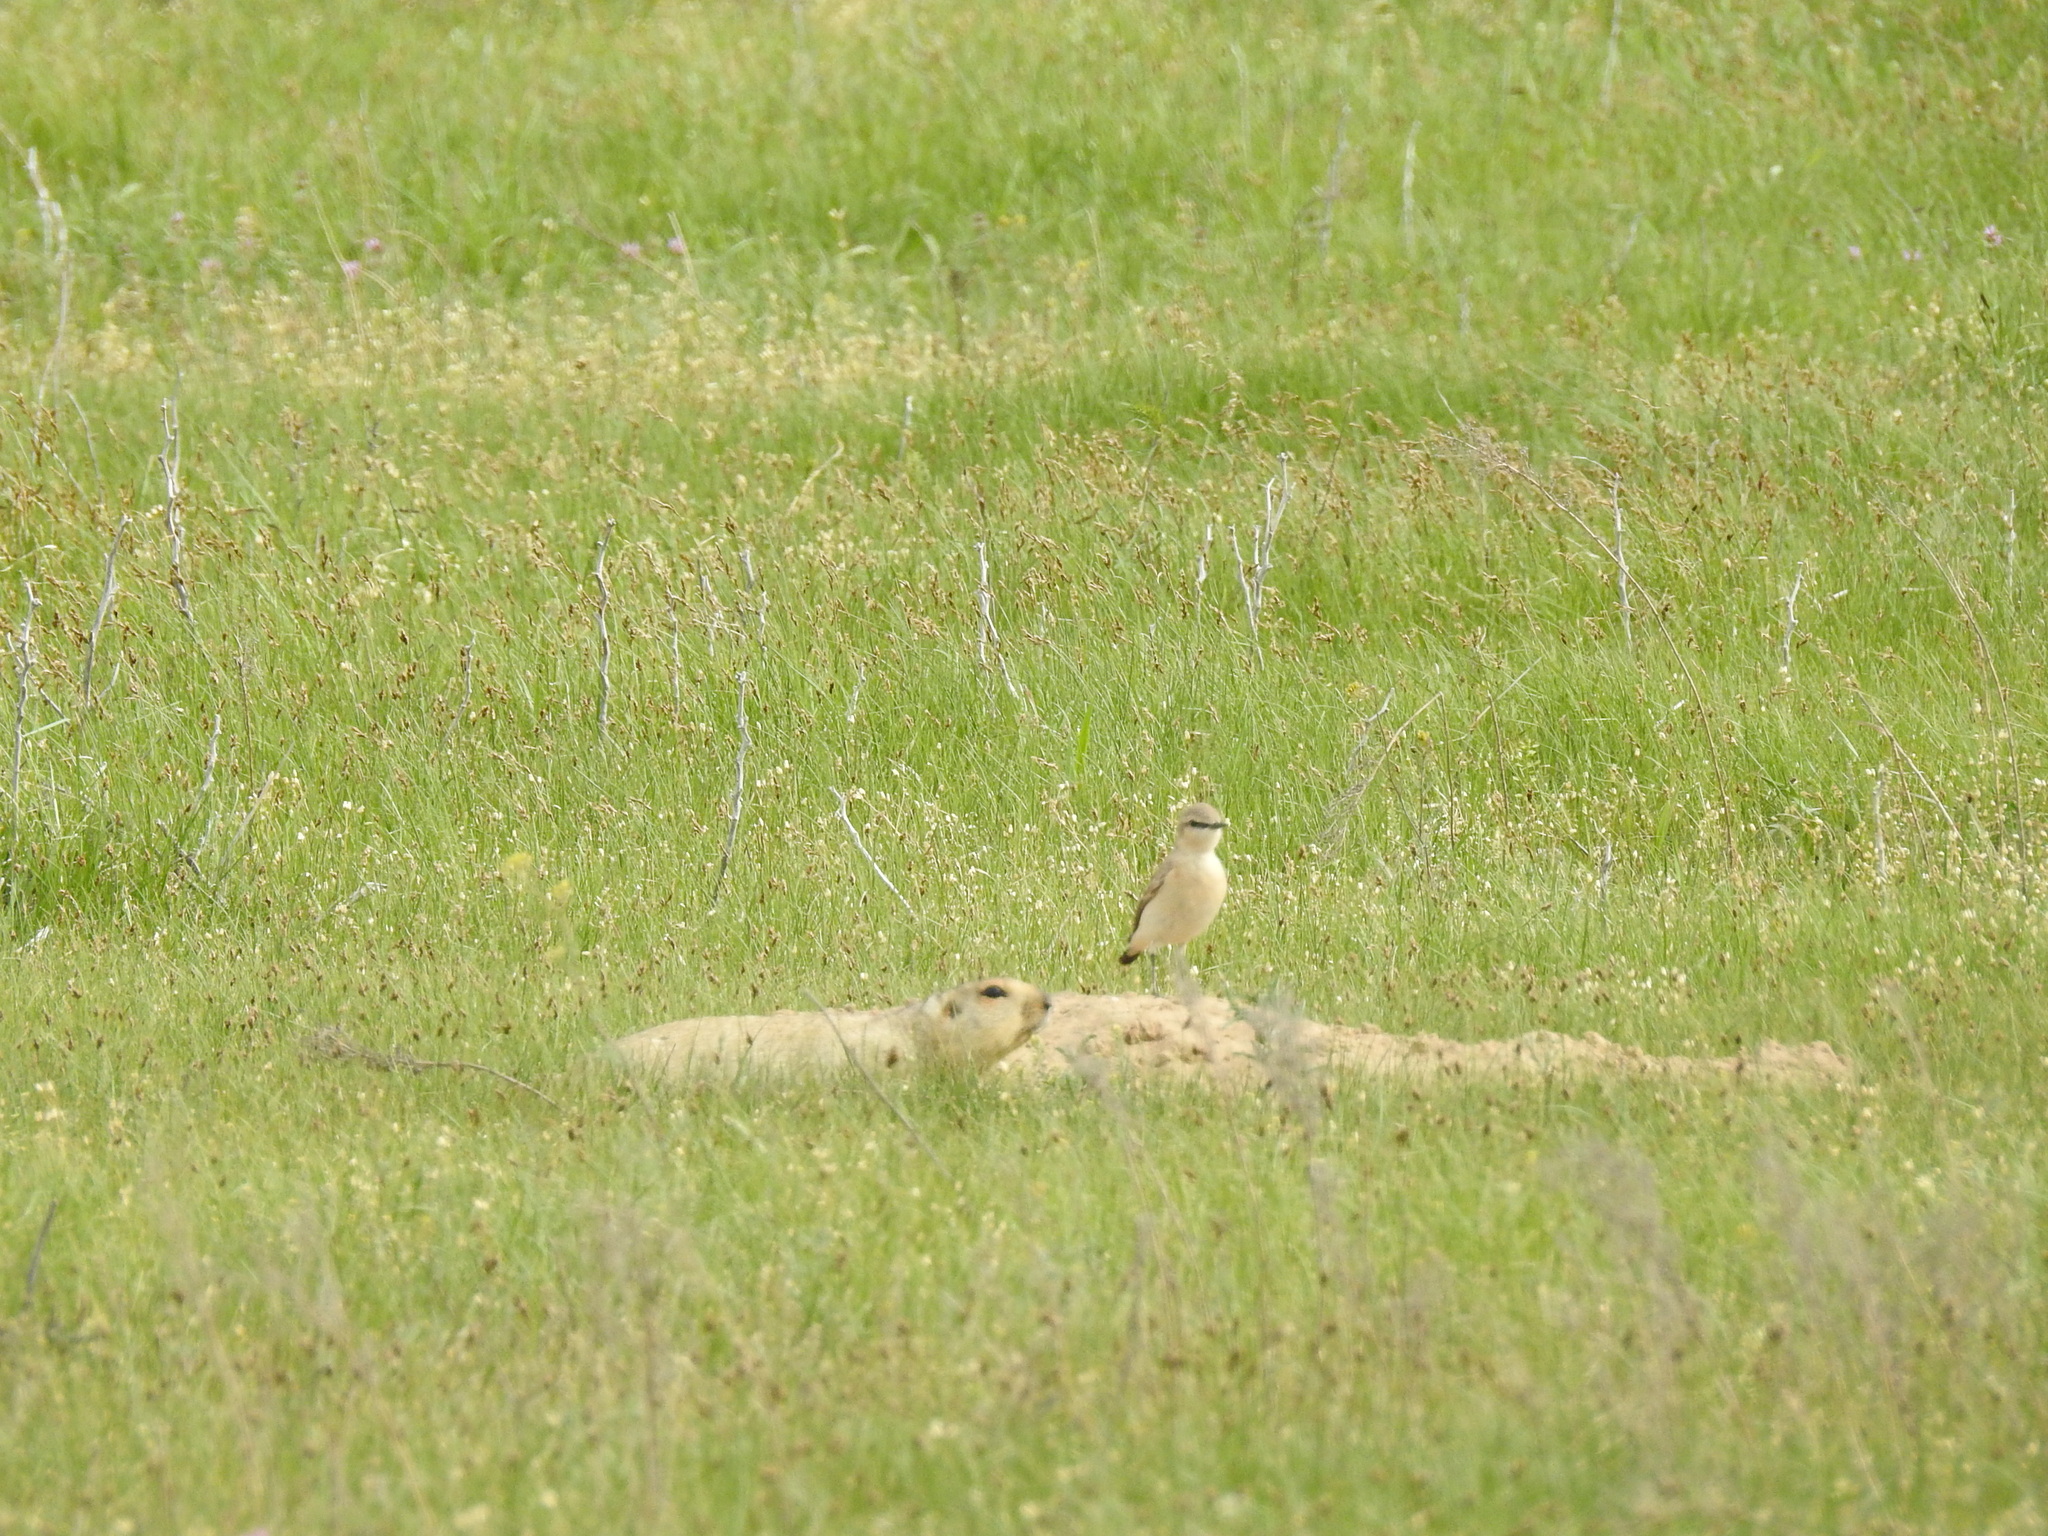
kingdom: Animalia
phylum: Chordata
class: Aves
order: Passeriformes
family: Muscicapidae
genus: Oenanthe
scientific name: Oenanthe isabellina
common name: Isabelline wheatear
